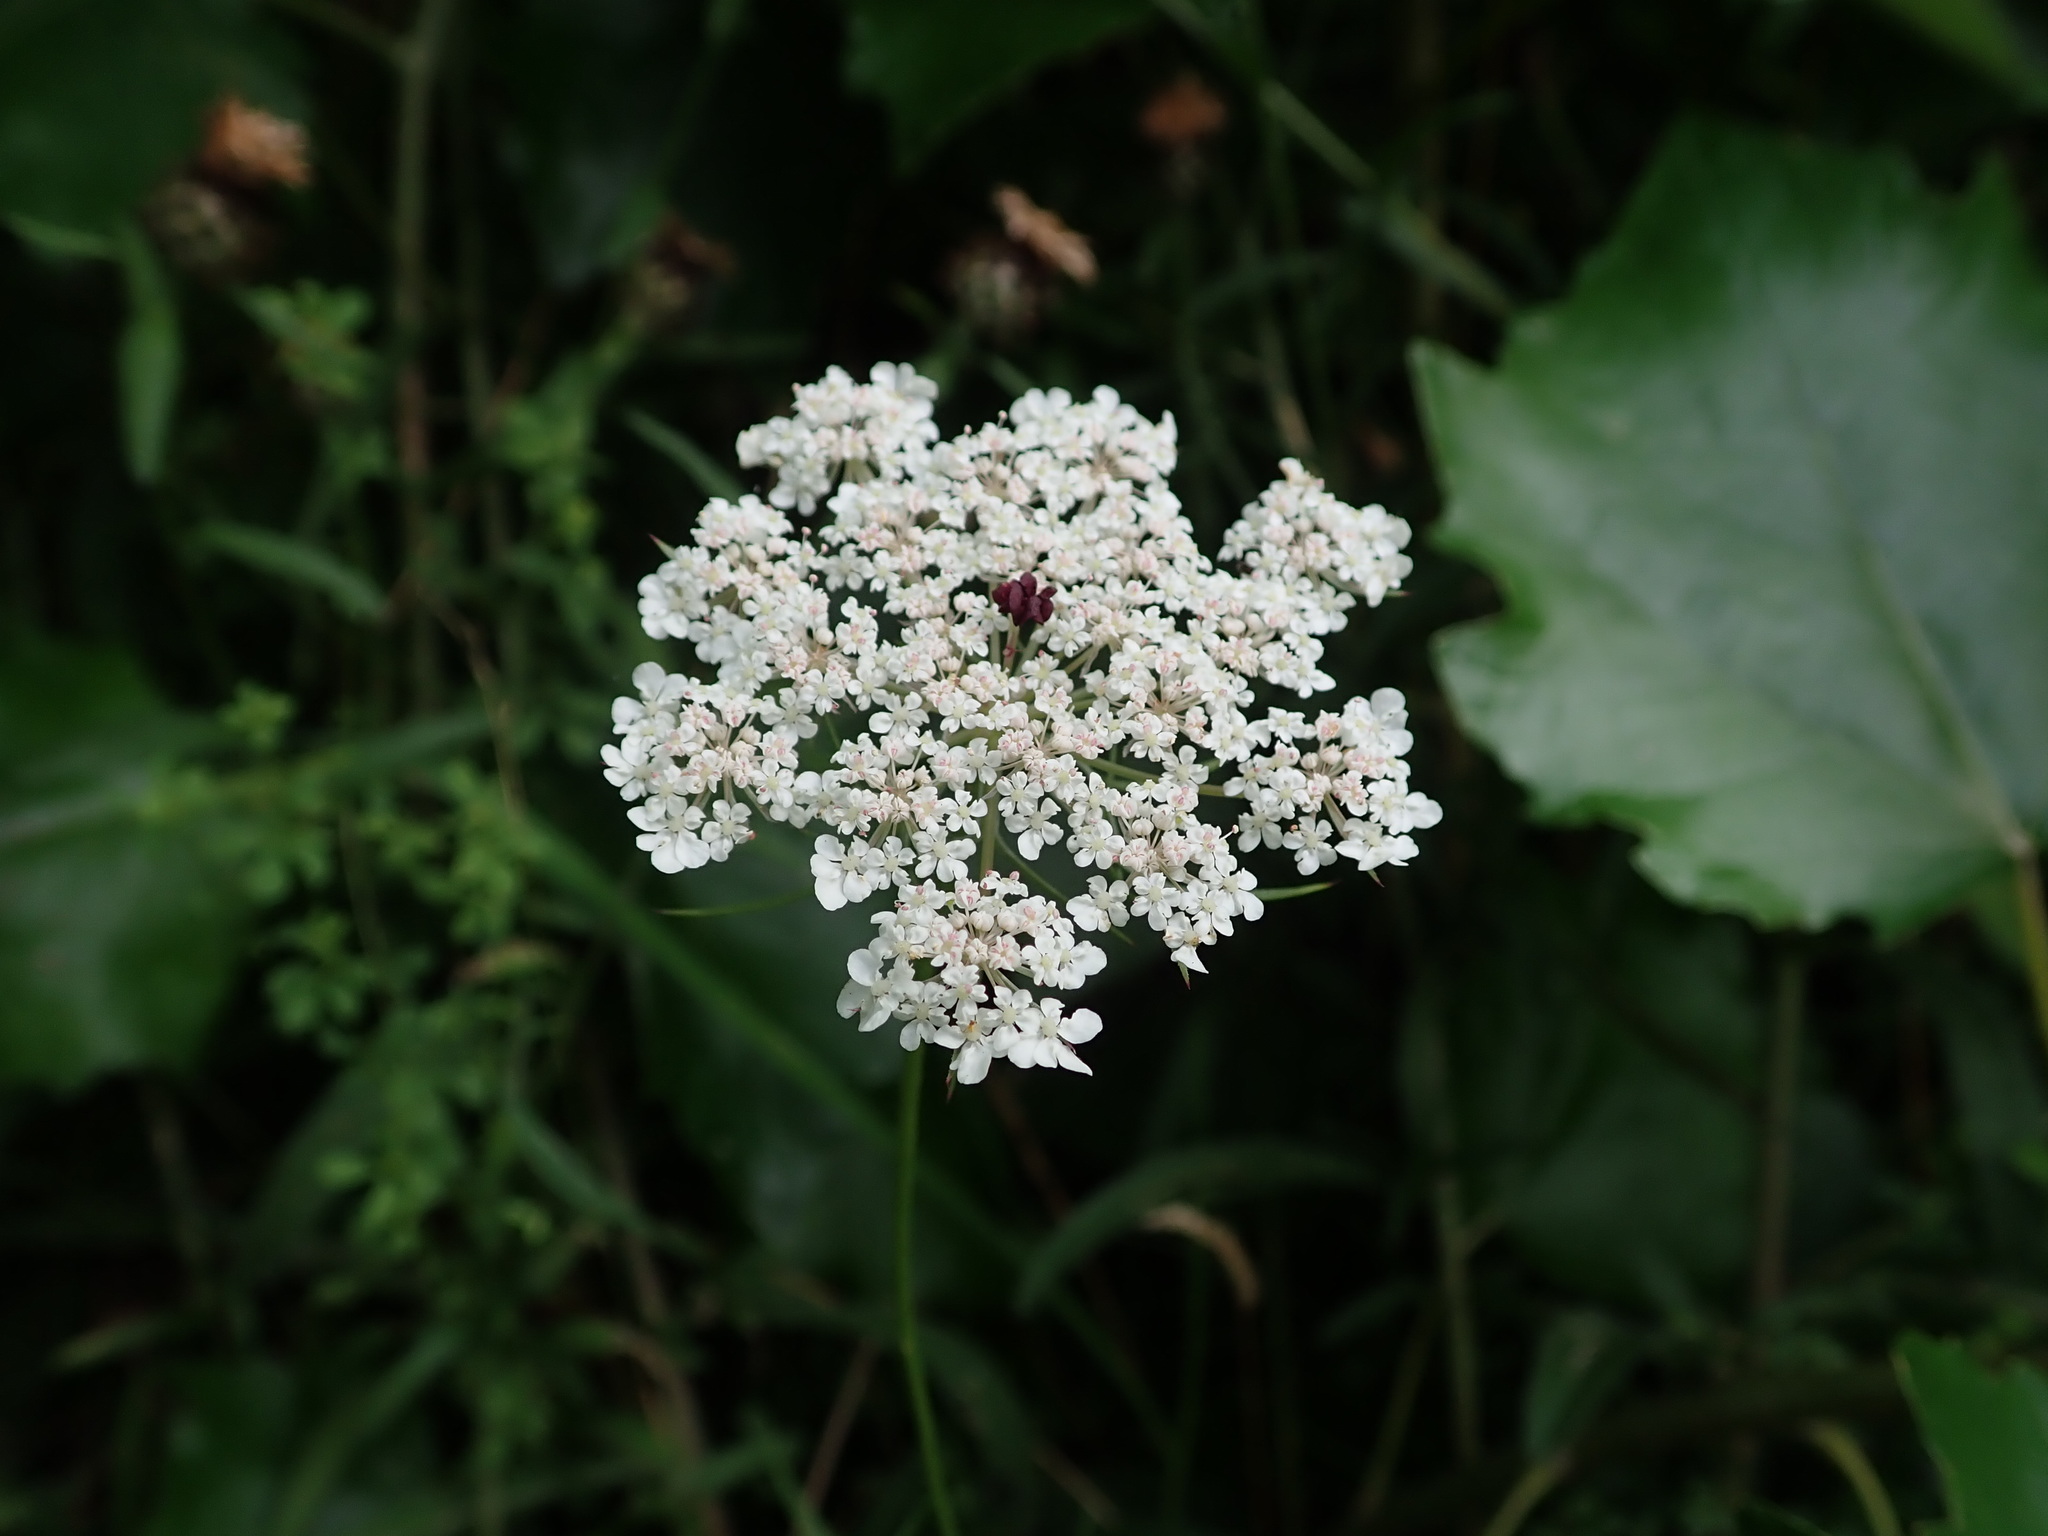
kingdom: Plantae
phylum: Tracheophyta
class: Magnoliopsida
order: Apiales
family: Apiaceae
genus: Daucus
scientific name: Daucus carota
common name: Wild carrot
